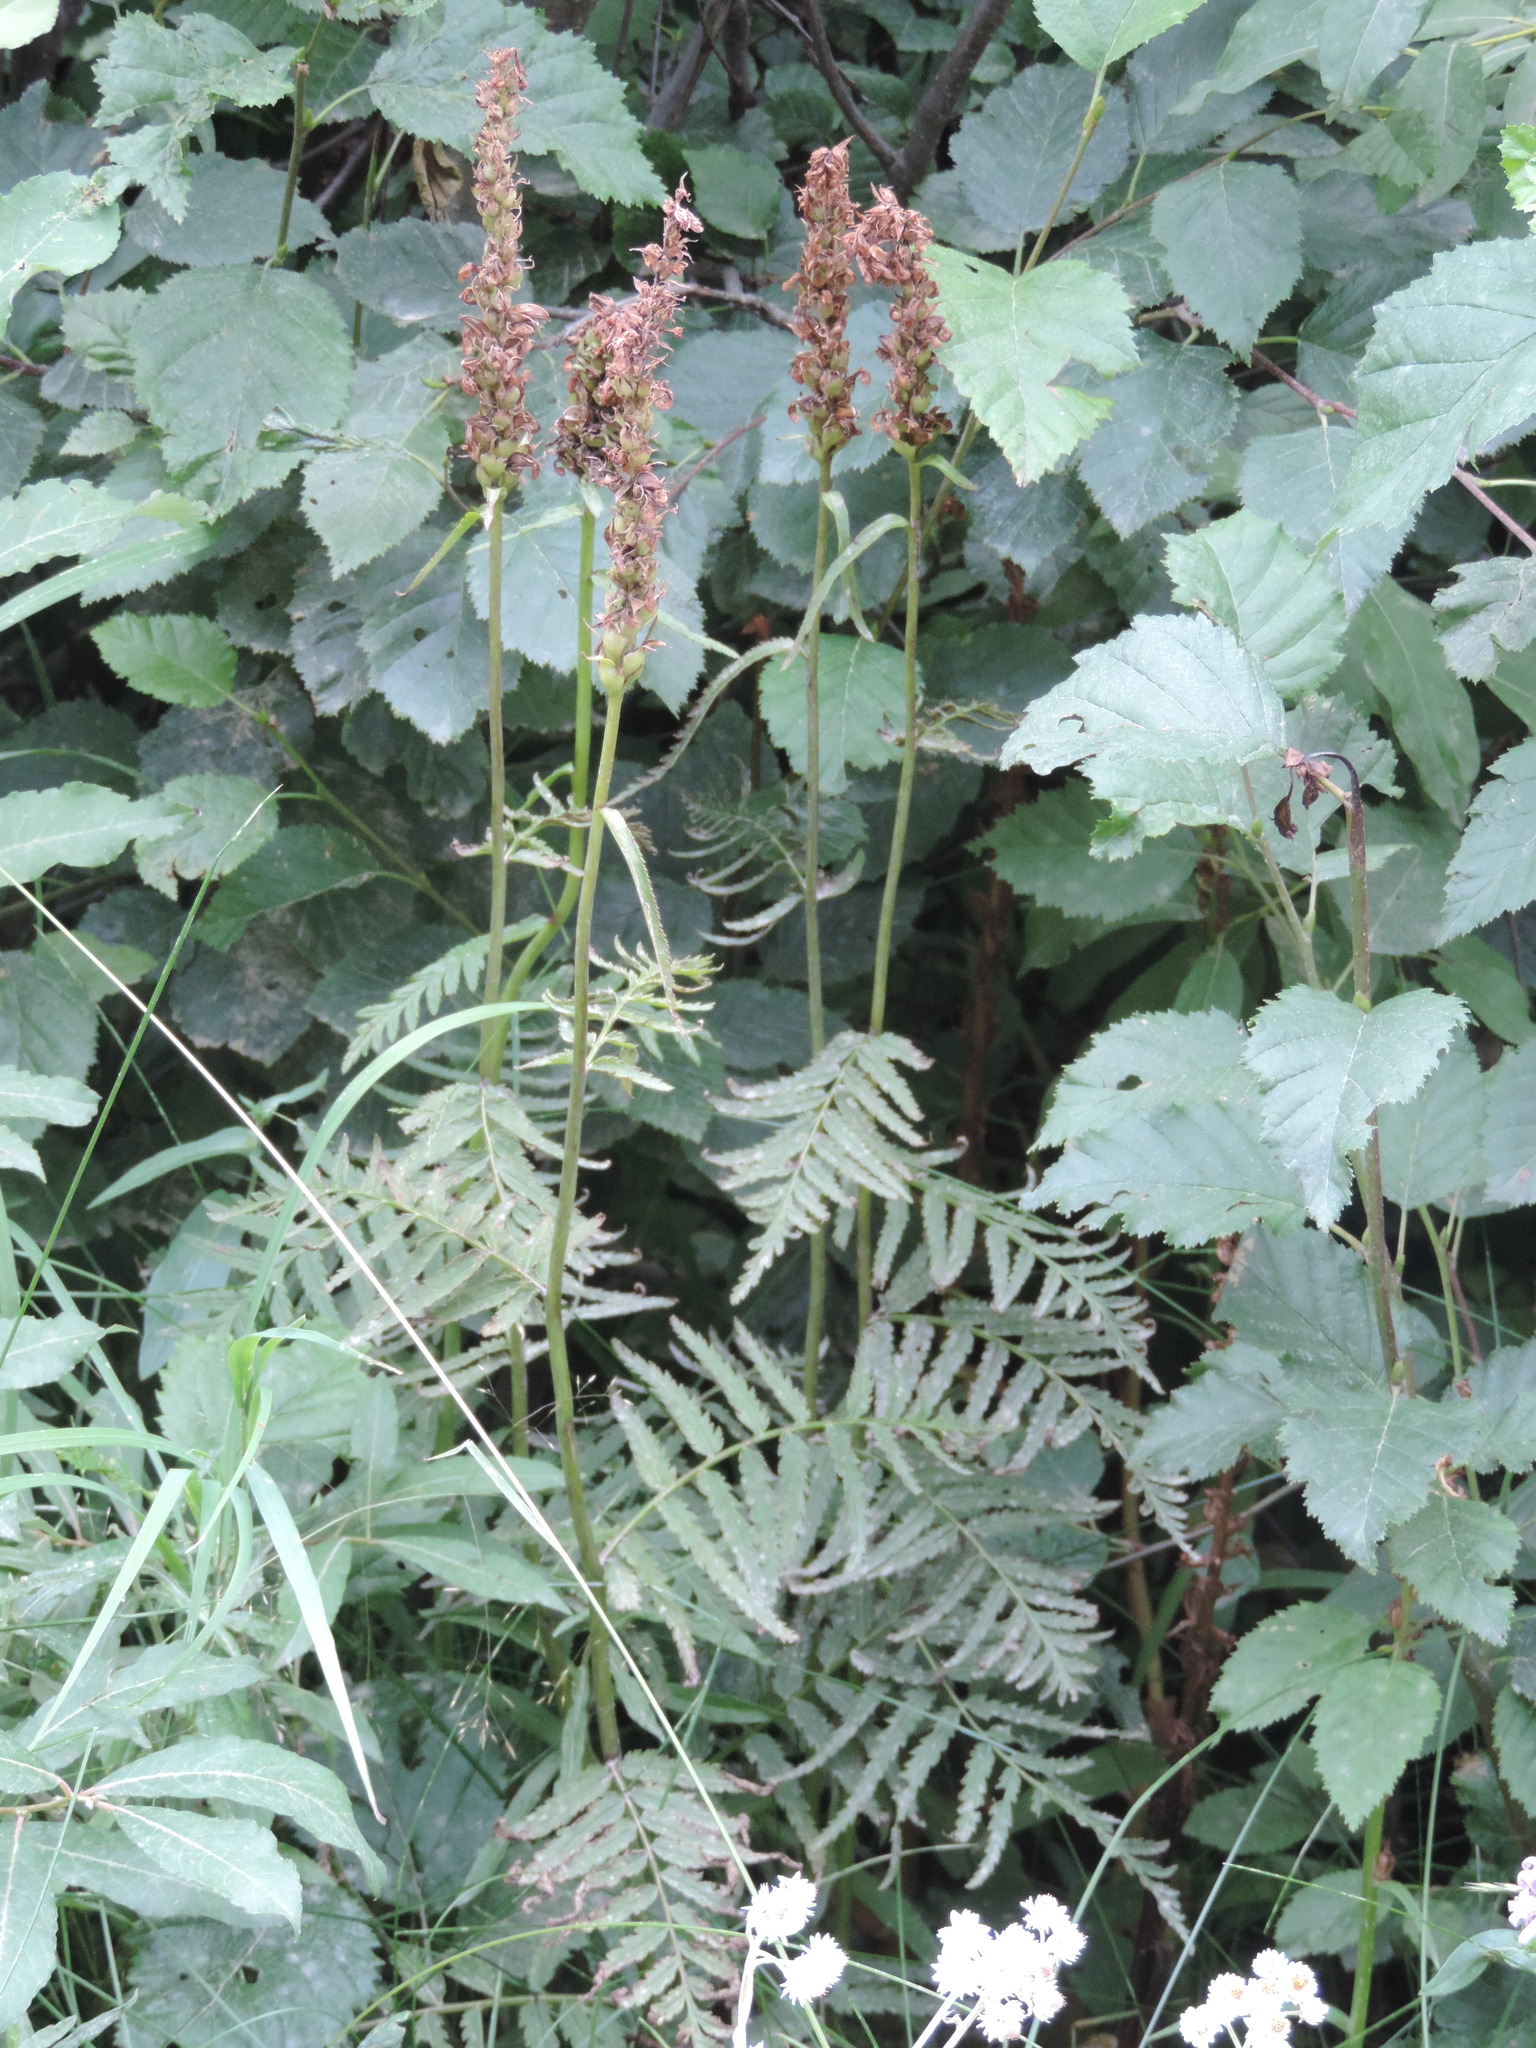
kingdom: Plantae
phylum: Tracheophyta
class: Magnoliopsida
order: Lamiales
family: Orobanchaceae
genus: Pedicularis
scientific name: Pedicularis bracteosa
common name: Bracted lousewort
